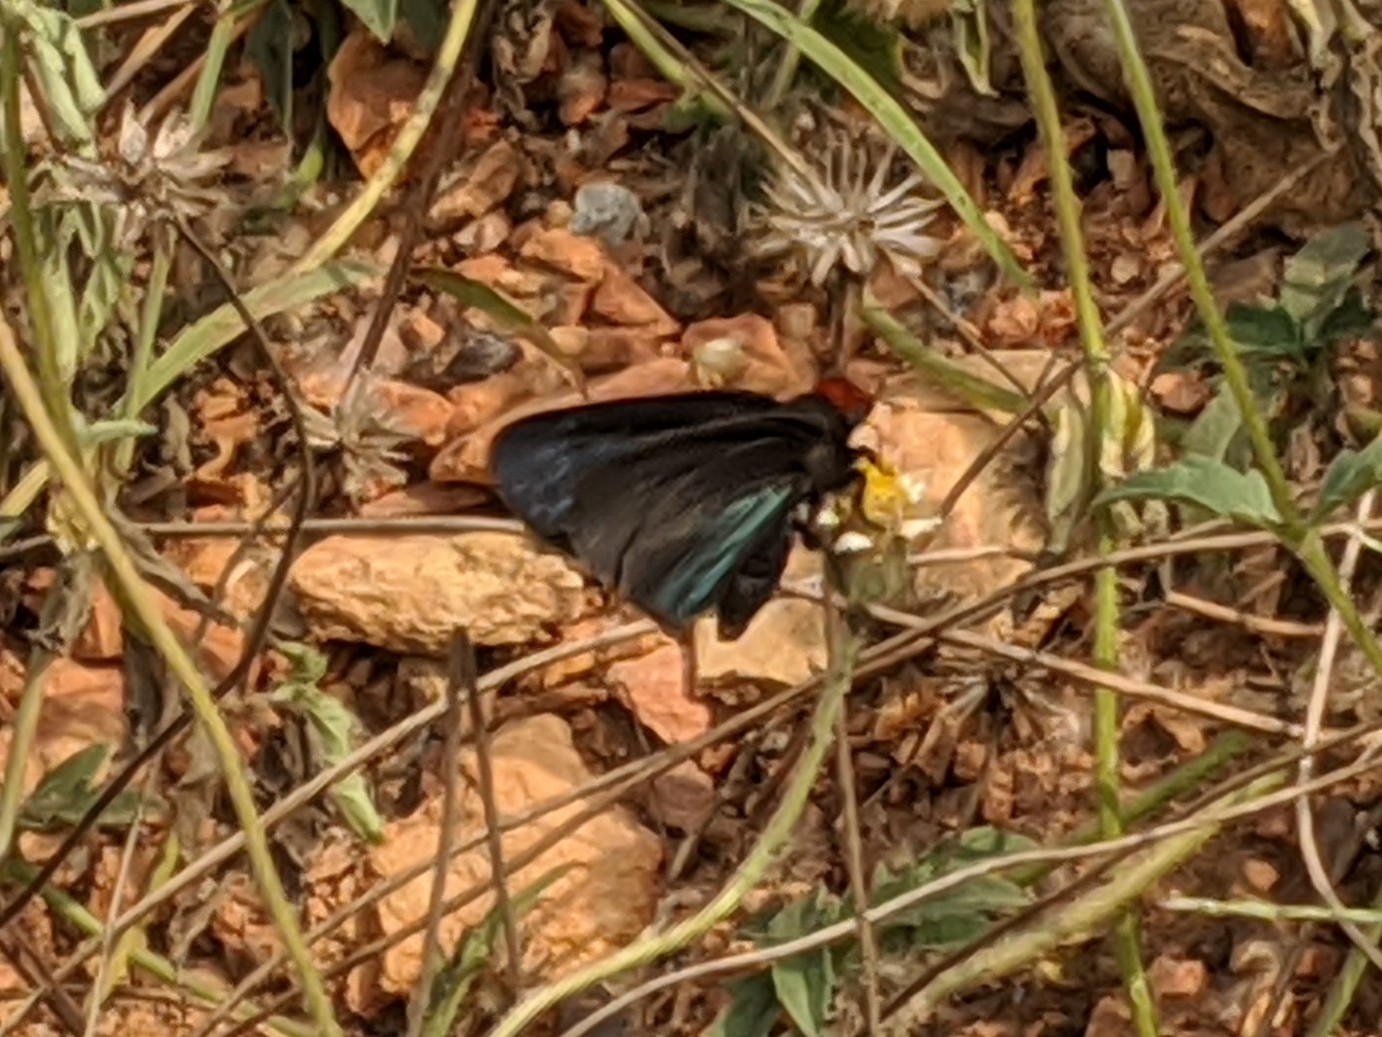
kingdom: Animalia
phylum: Arthropoda
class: Insecta
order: Lepidoptera
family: Hesperiidae
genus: Pyrrhochalcia
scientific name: Pyrrhochalcia iphis
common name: African giant skipper
